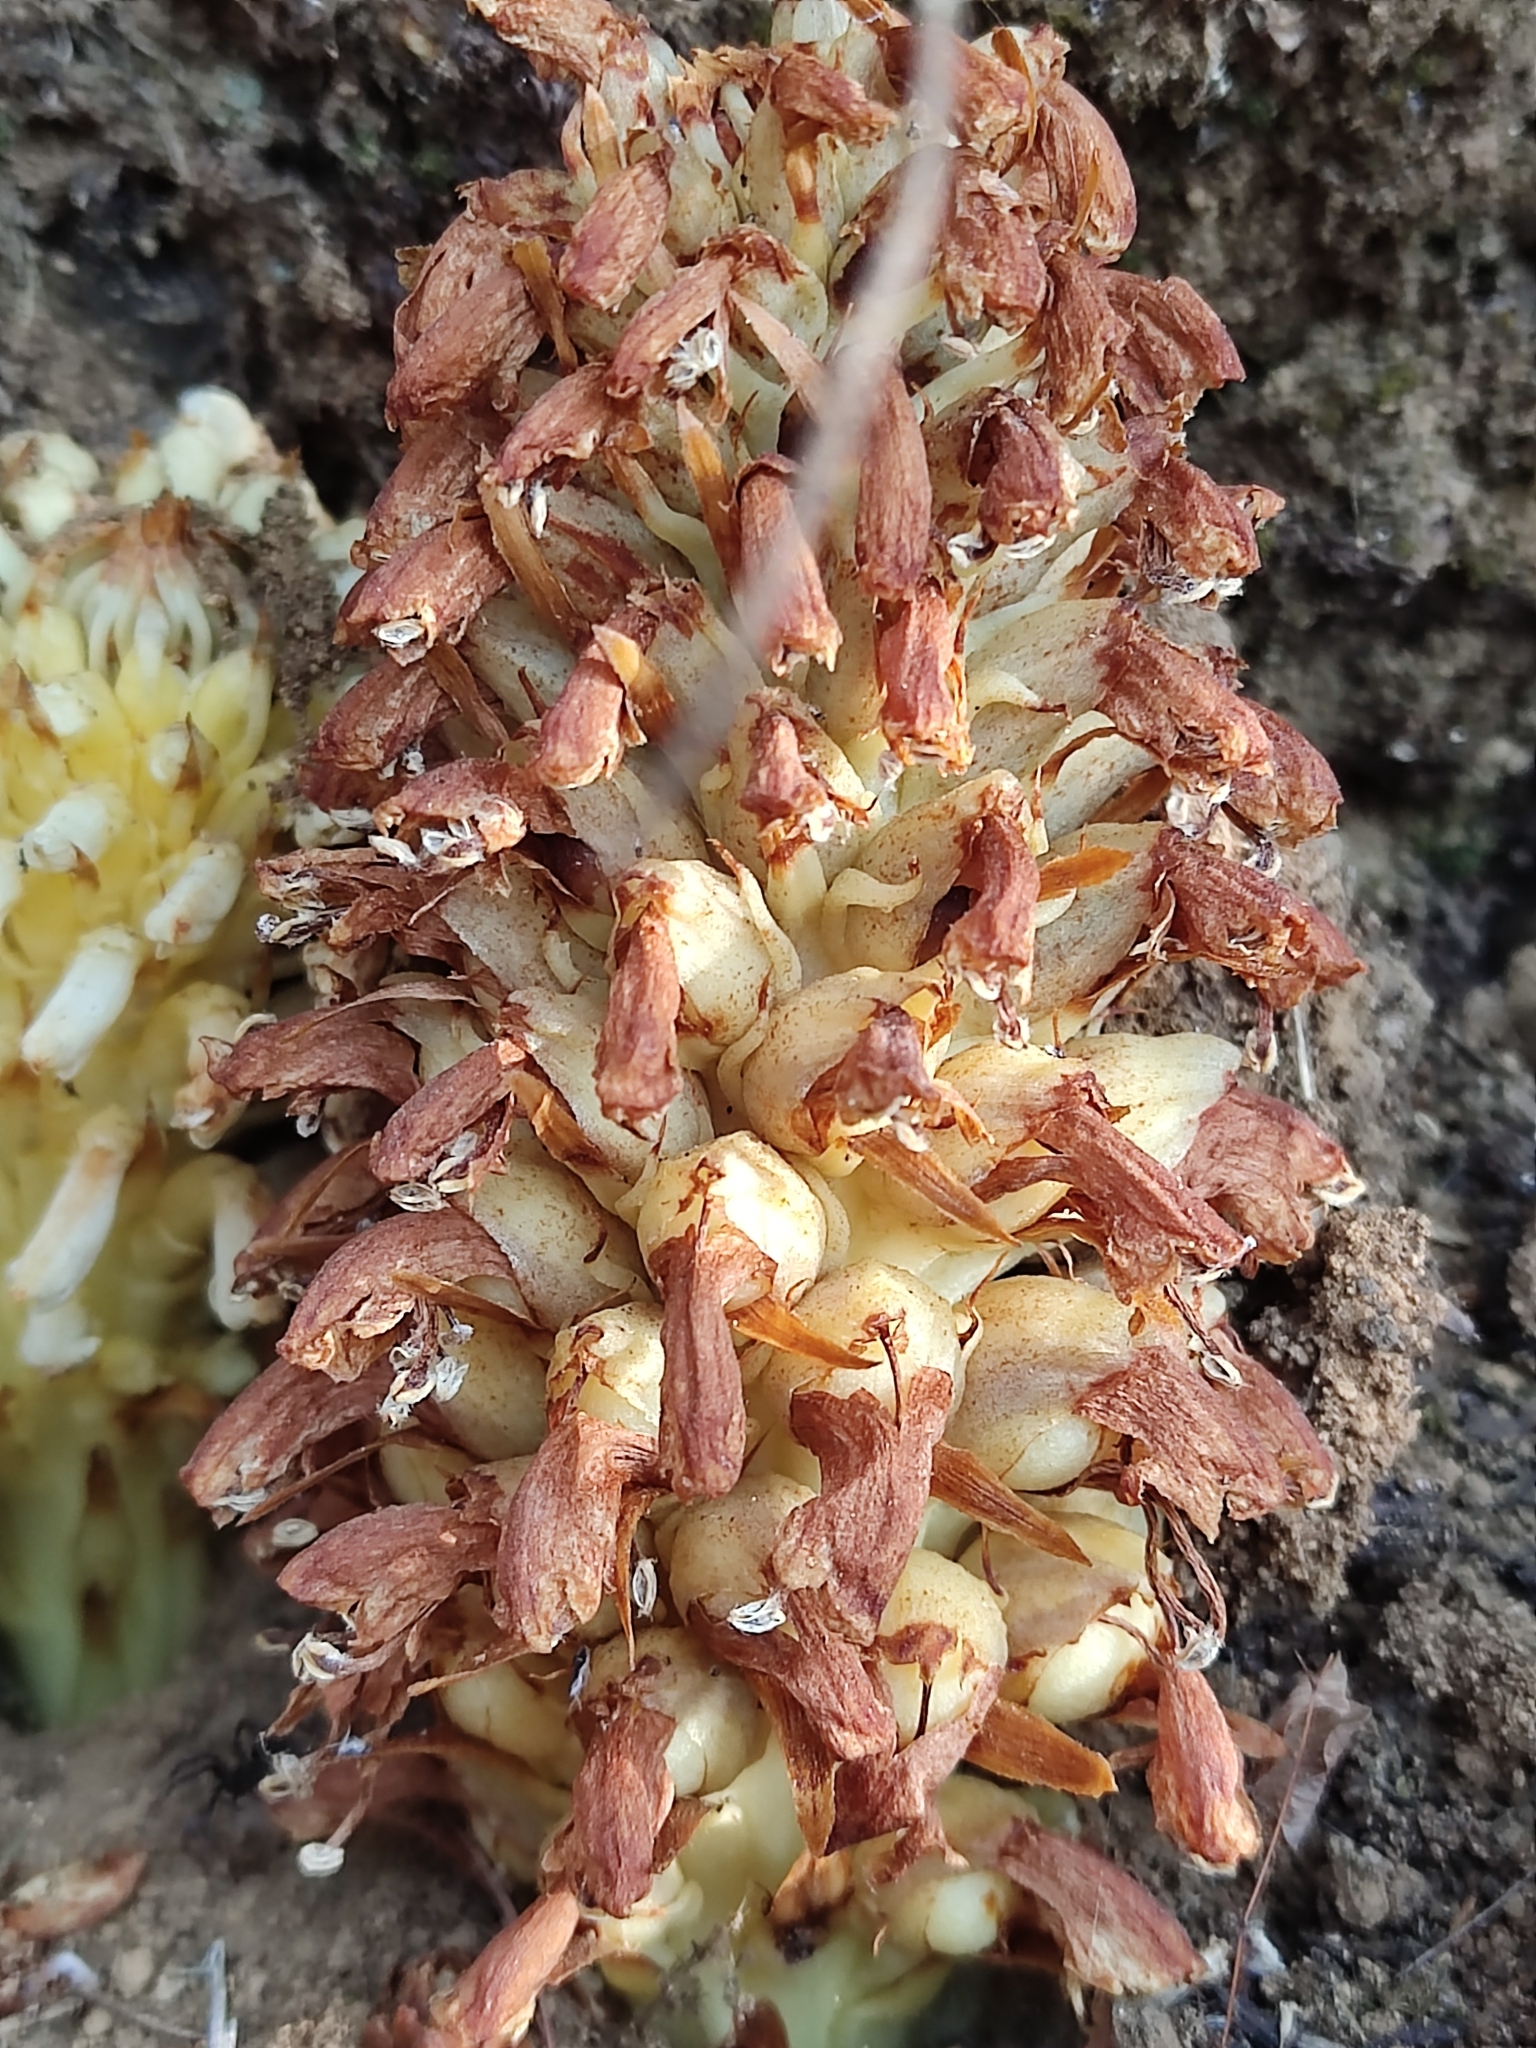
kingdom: Plantae
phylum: Tracheophyta
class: Magnoliopsida
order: Lamiales
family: Orobanchaceae
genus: Conopholis
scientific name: Conopholis alpina
